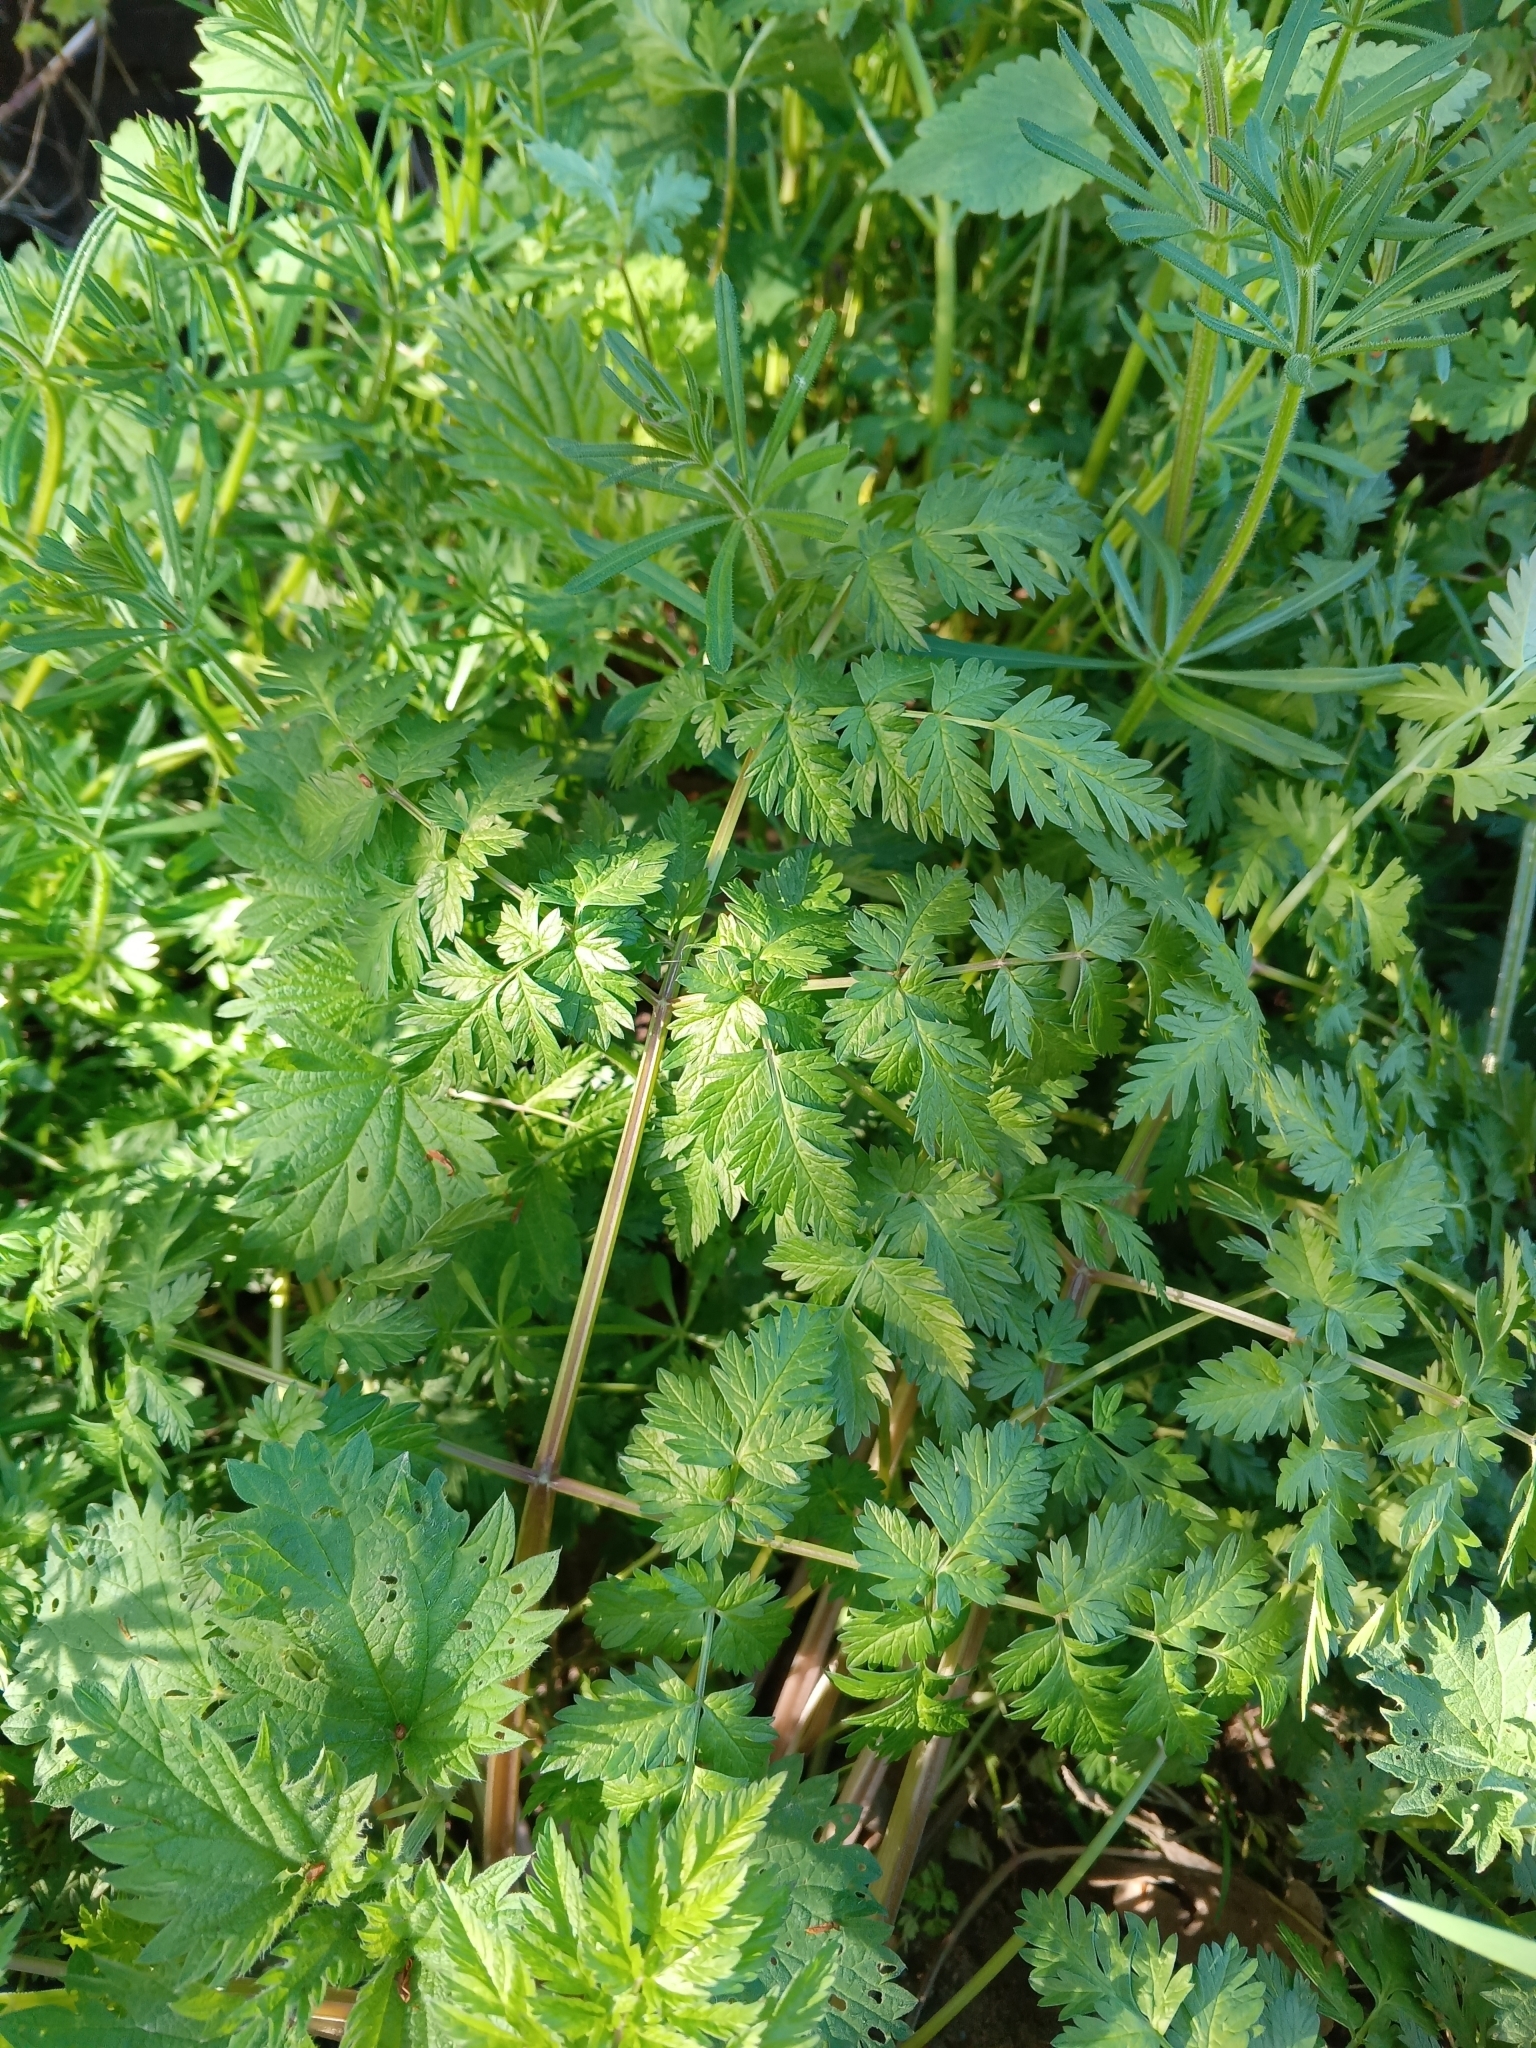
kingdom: Plantae
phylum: Tracheophyta
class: Magnoliopsida
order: Apiales
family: Apiaceae
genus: Anthriscus
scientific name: Anthriscus sylvestris
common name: Cow parsley
